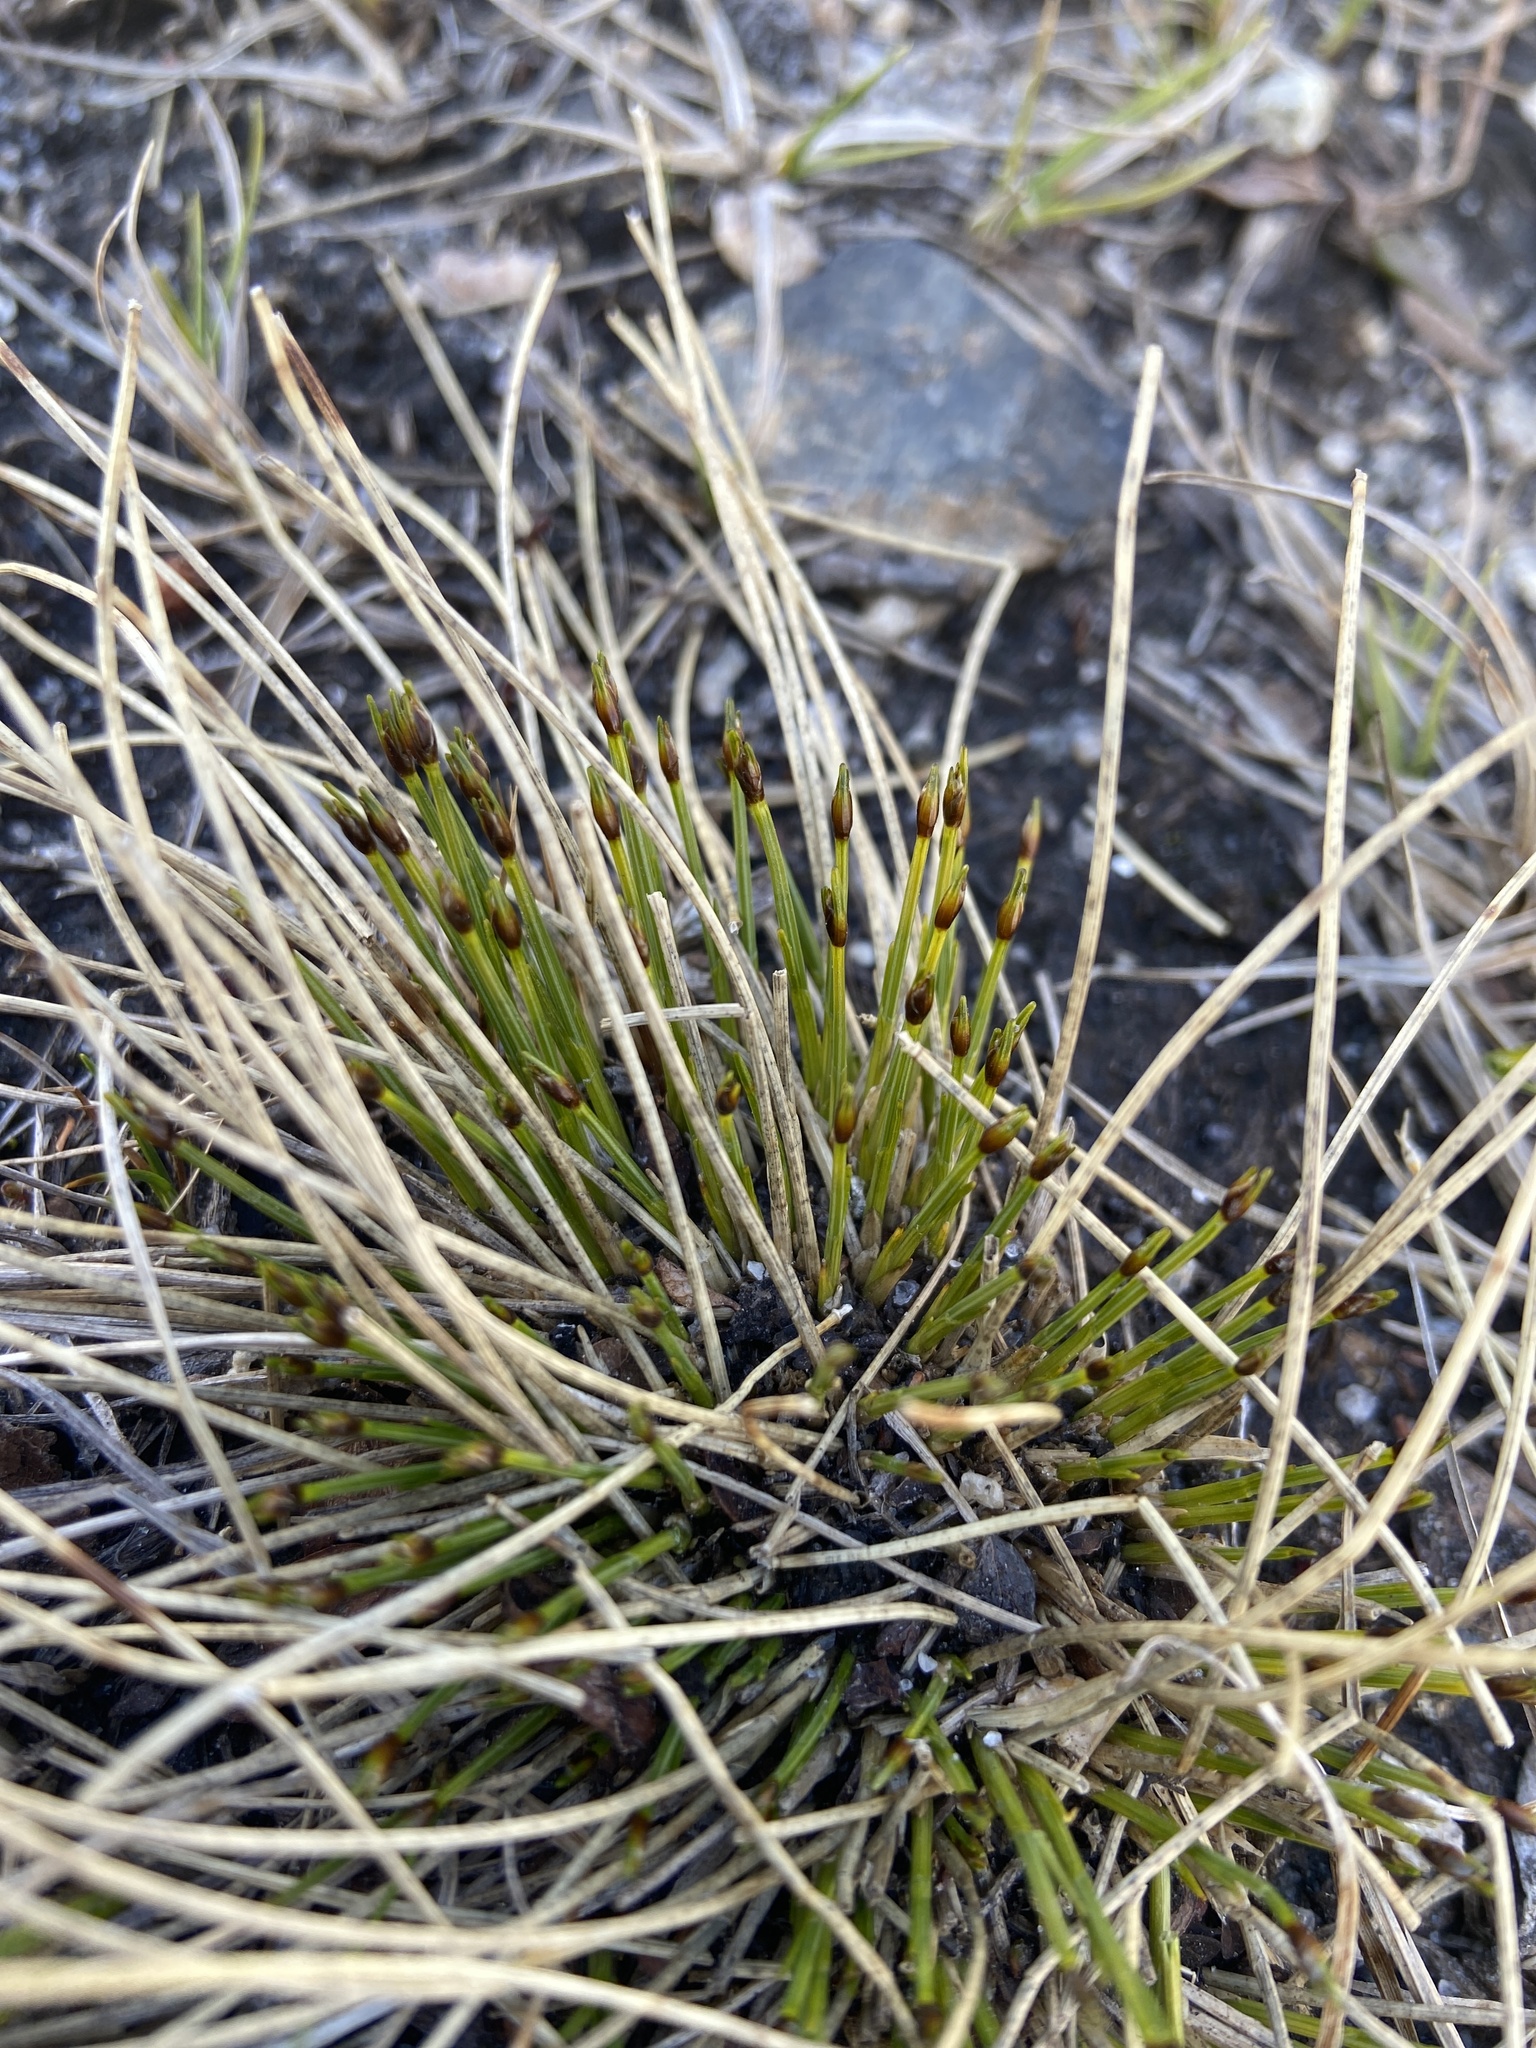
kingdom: Plantae
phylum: Tracheophyta
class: Liliopsida
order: Poales
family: Cyperaceae
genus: Trichophorum
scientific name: Trichophorum cespitosum
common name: Cespitose bulrush
